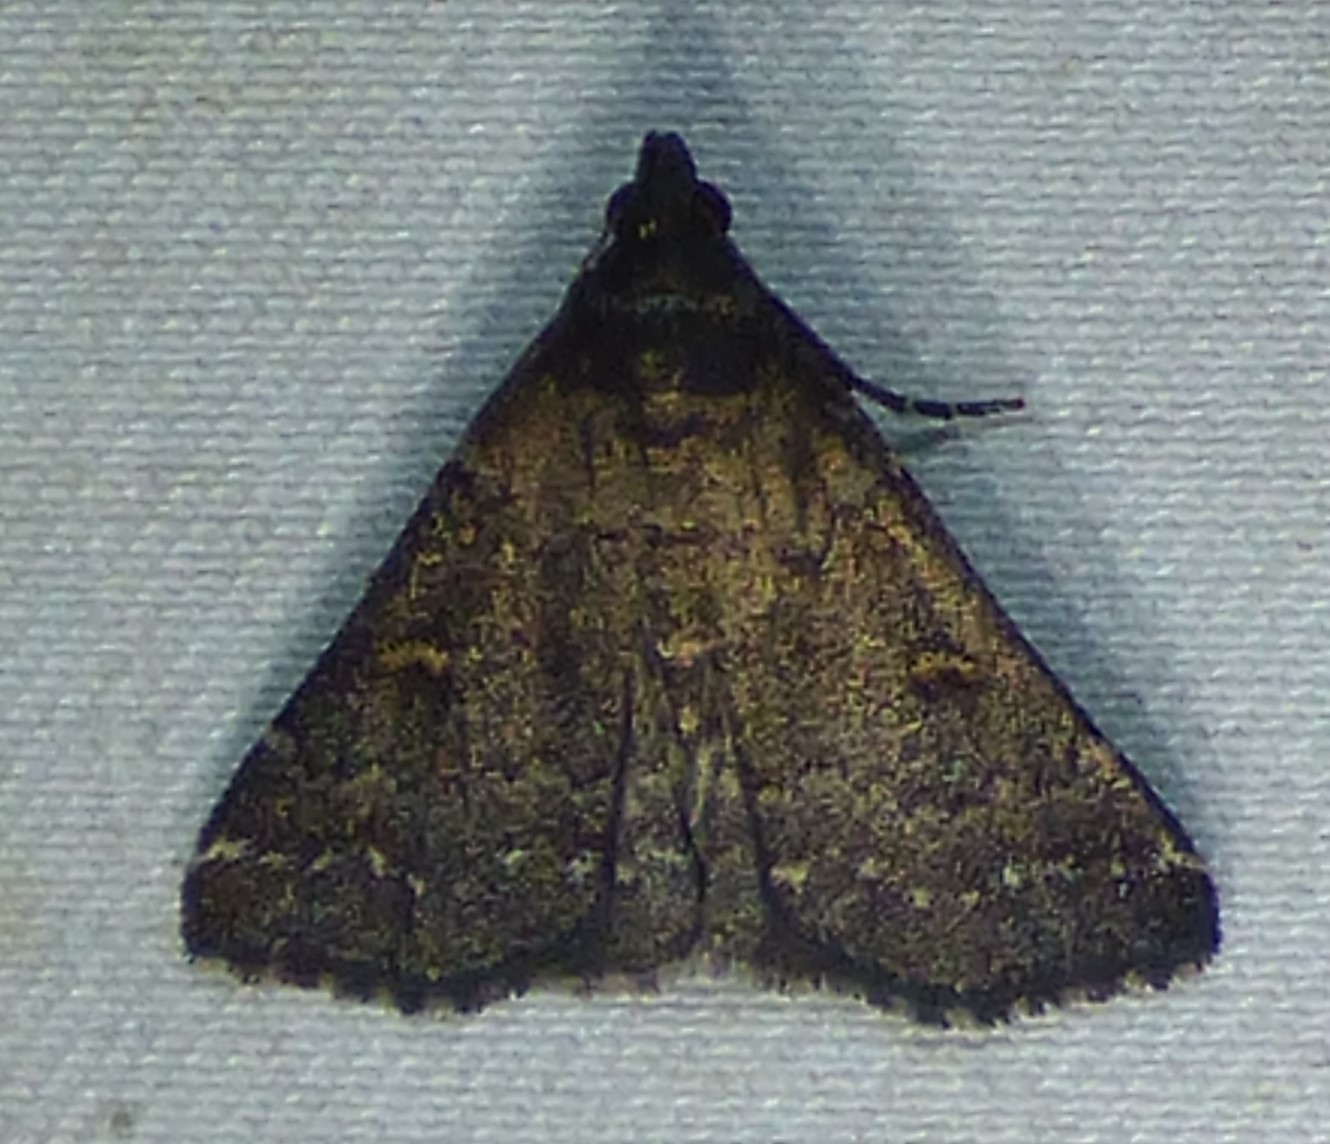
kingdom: Animalia
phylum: Arthropoda
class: Insecta
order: Lepidoptera
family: Erebidae
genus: Tetanolita
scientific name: Tetanolita mynesalis
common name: Smoky tetanolita moth
